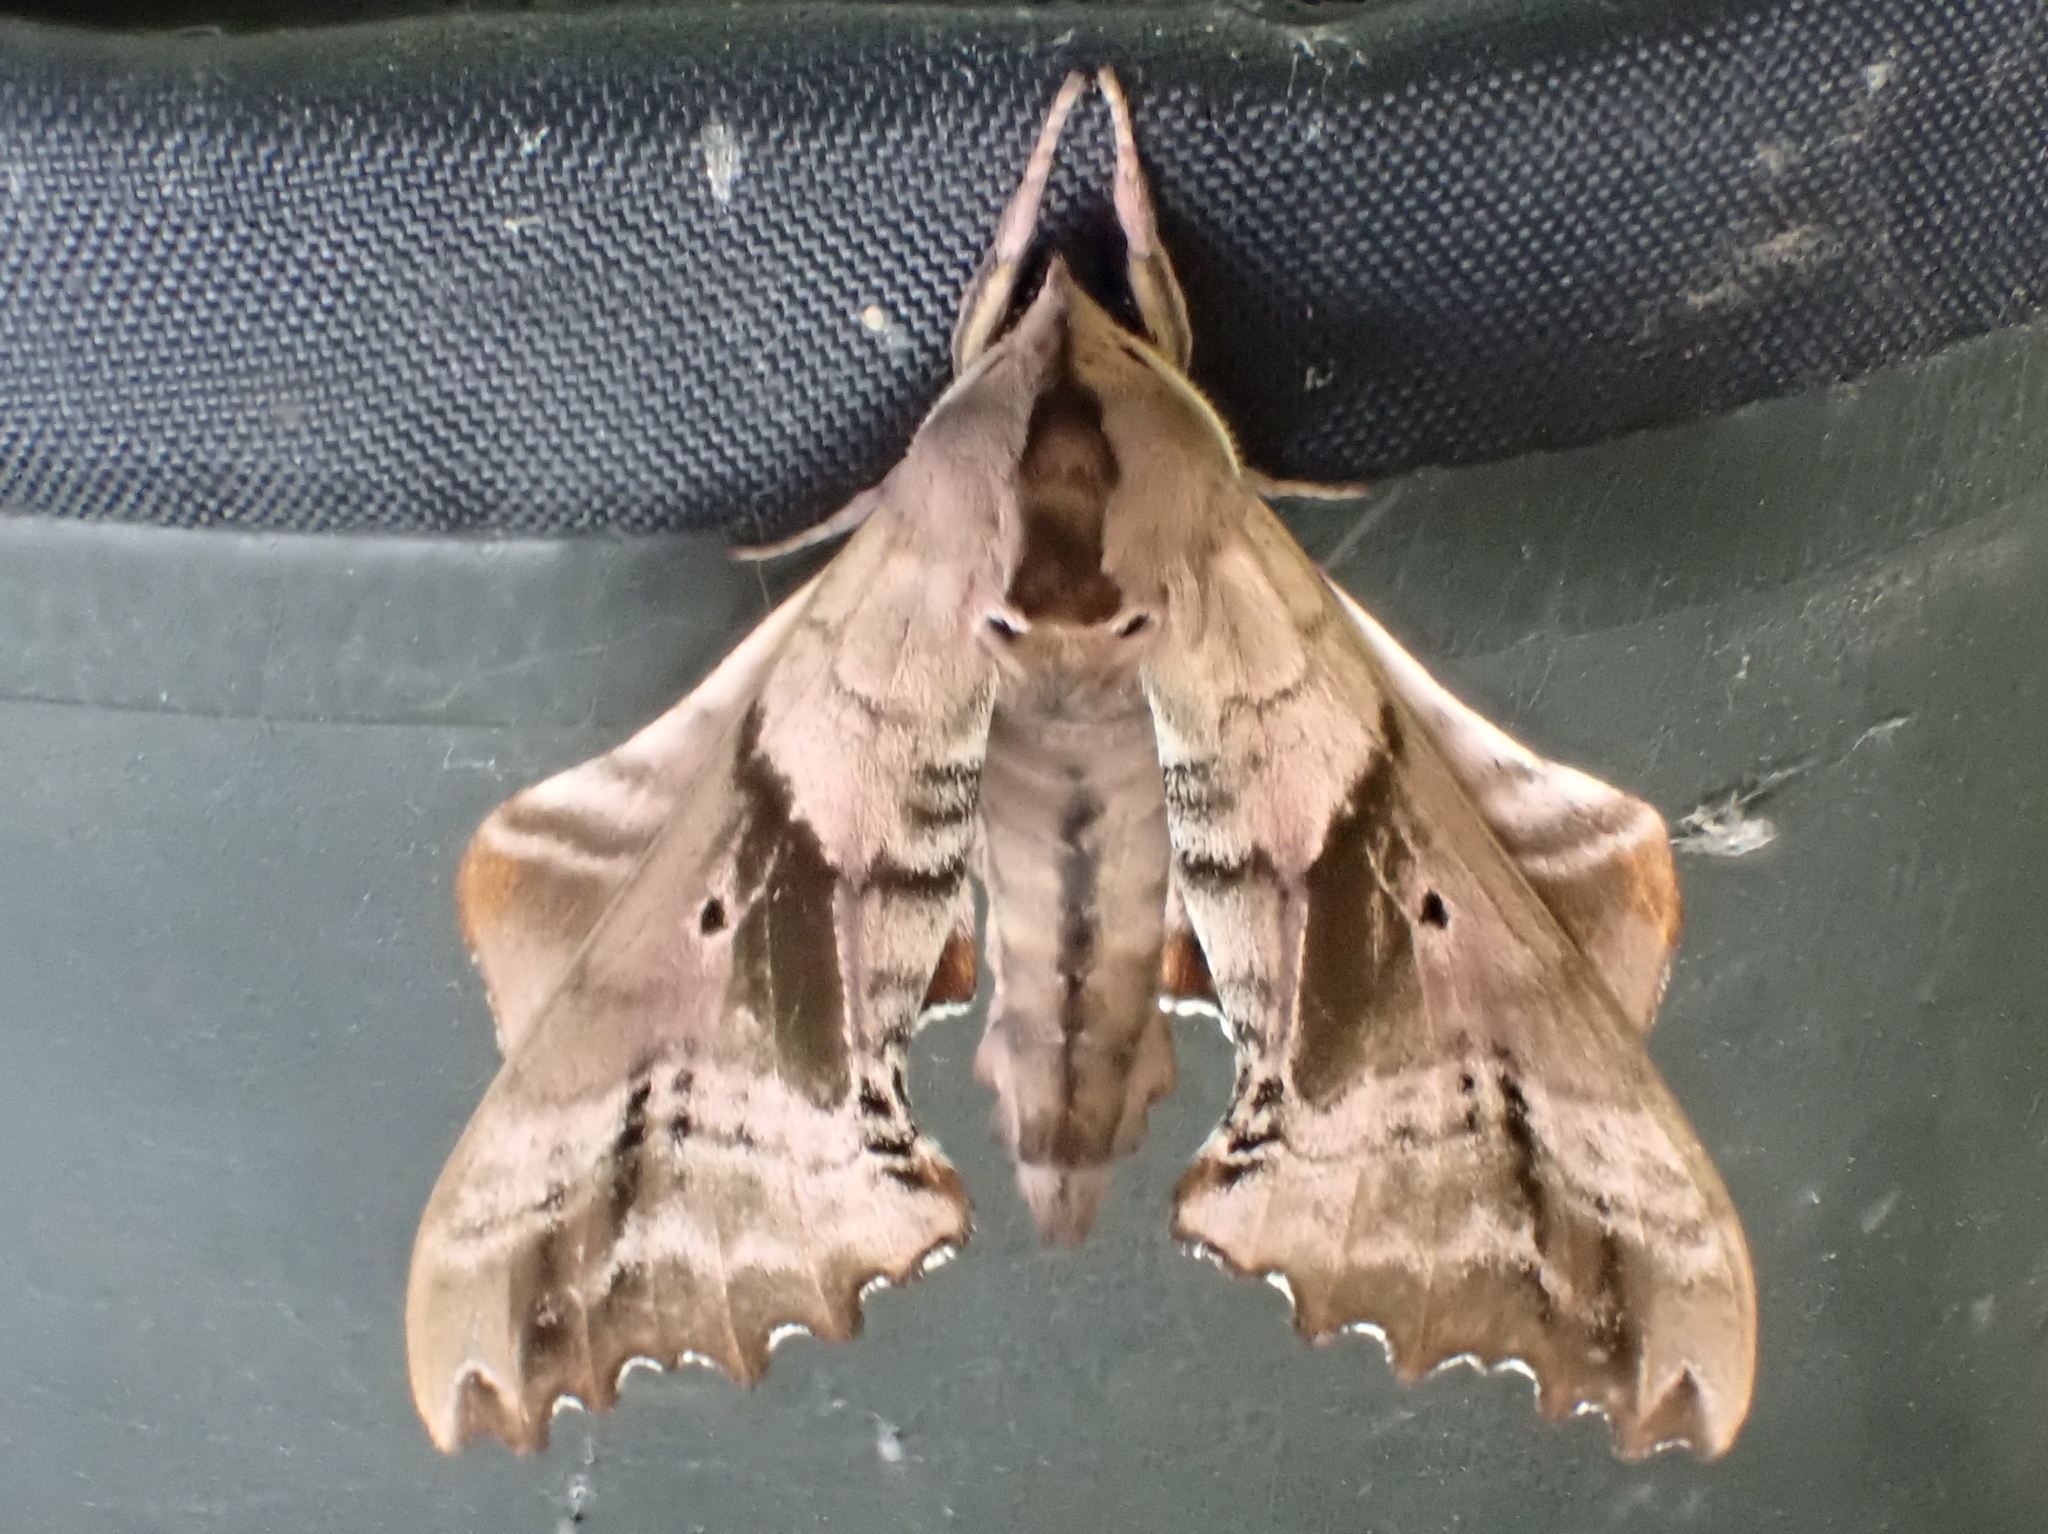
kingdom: Animalia
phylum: Arthropoda
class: Insecta
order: Lepidoptera
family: Sphingidae
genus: Paonias
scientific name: Paonias excaecata
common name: Blind-eyed sphinx
